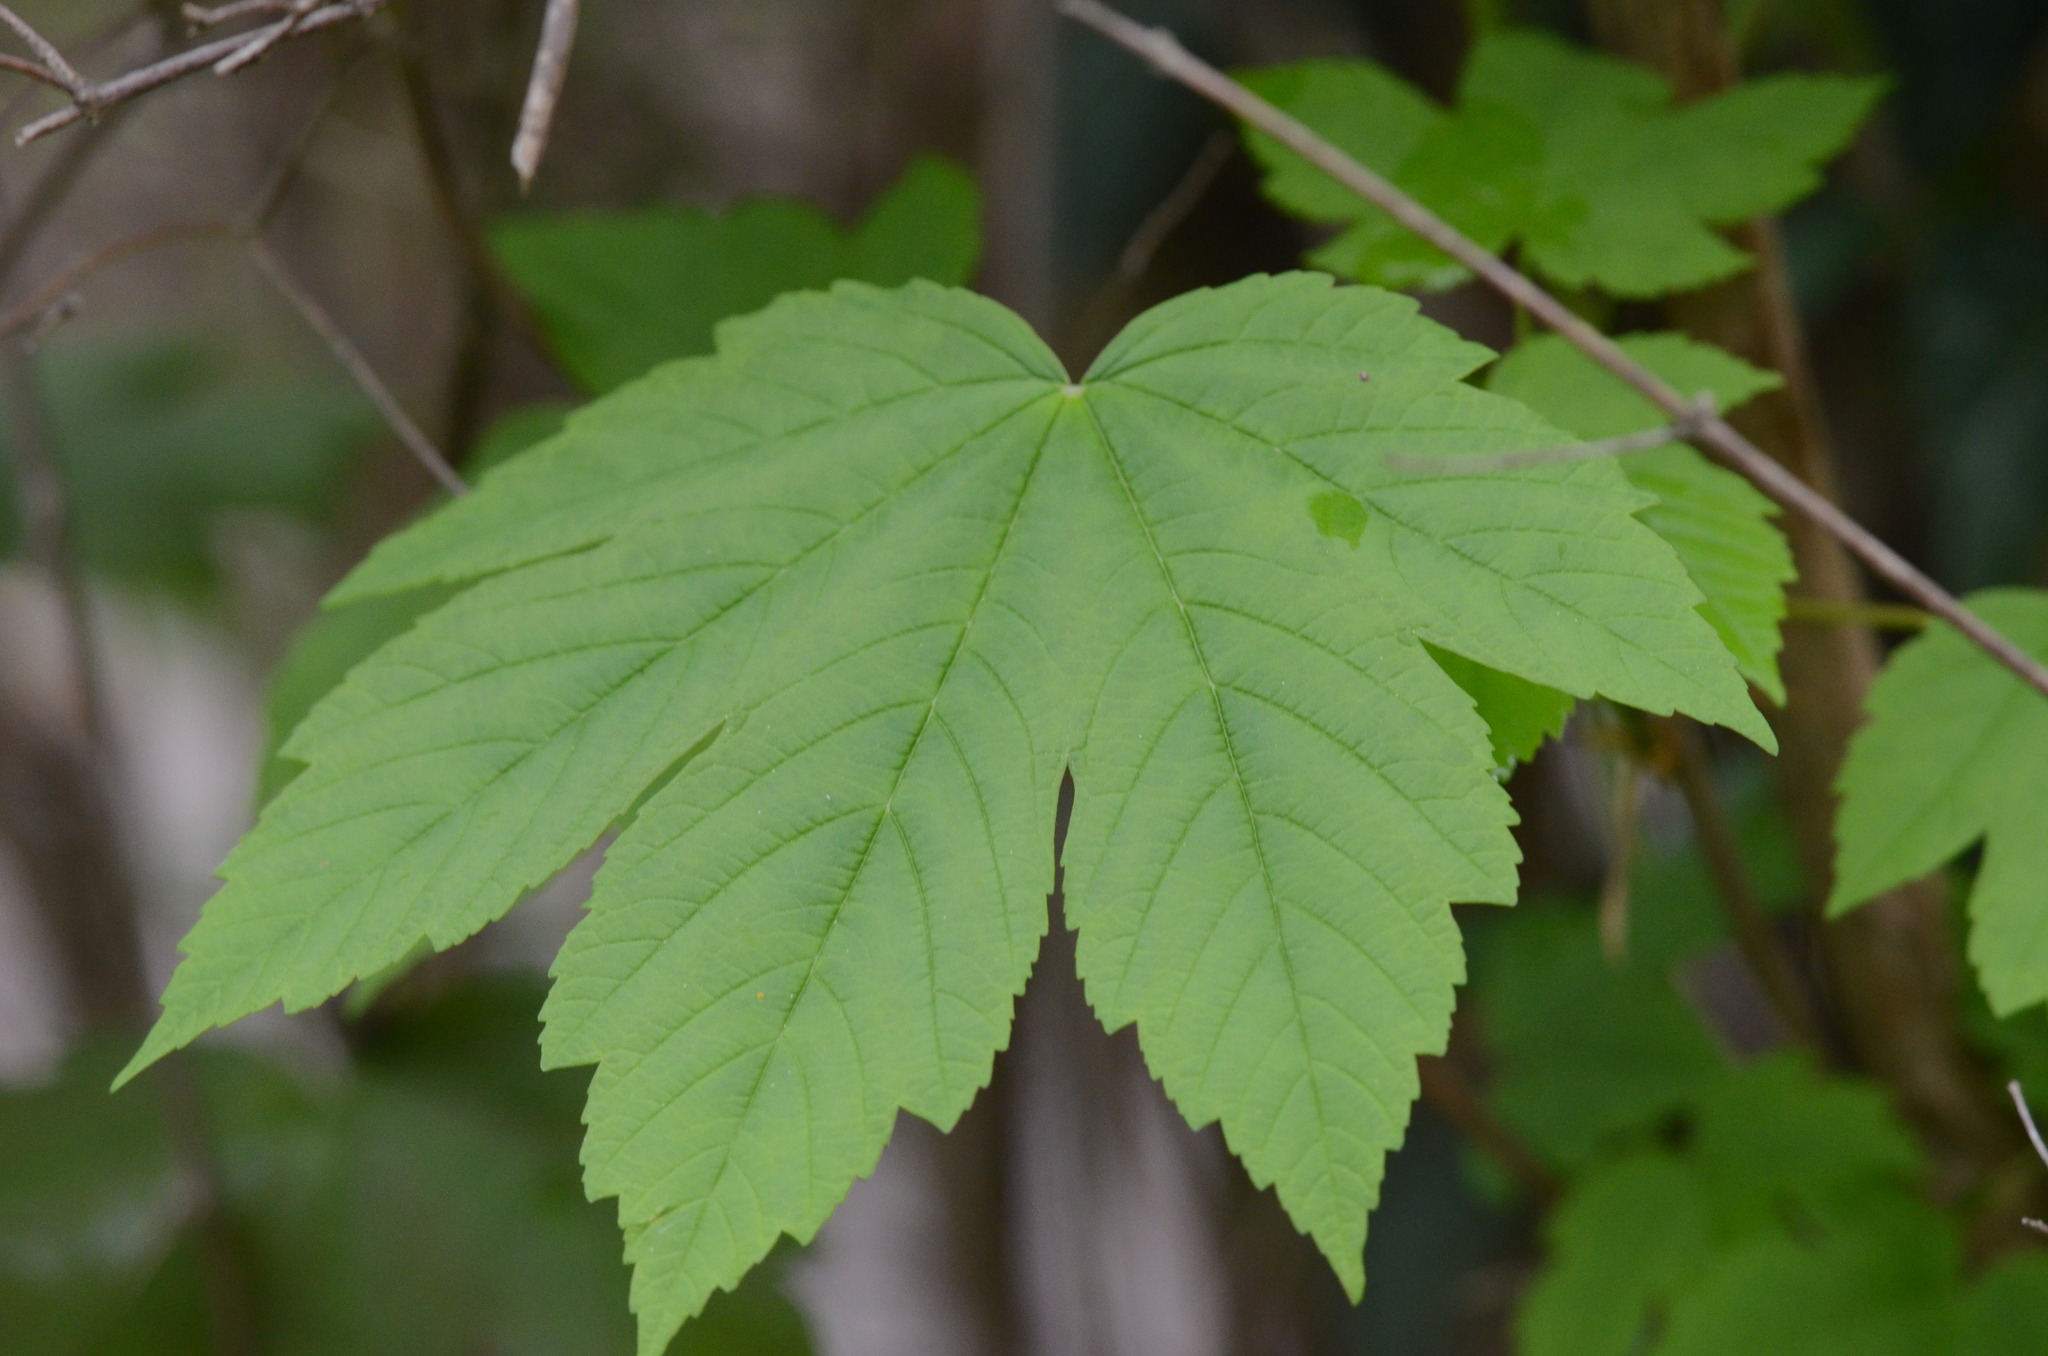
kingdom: Plantae
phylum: Tracheophyta
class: Magnoliopsida
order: Sapindales
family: Sapindaceae
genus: Acer
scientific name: Acer pseudoplatanus
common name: Sycamore
